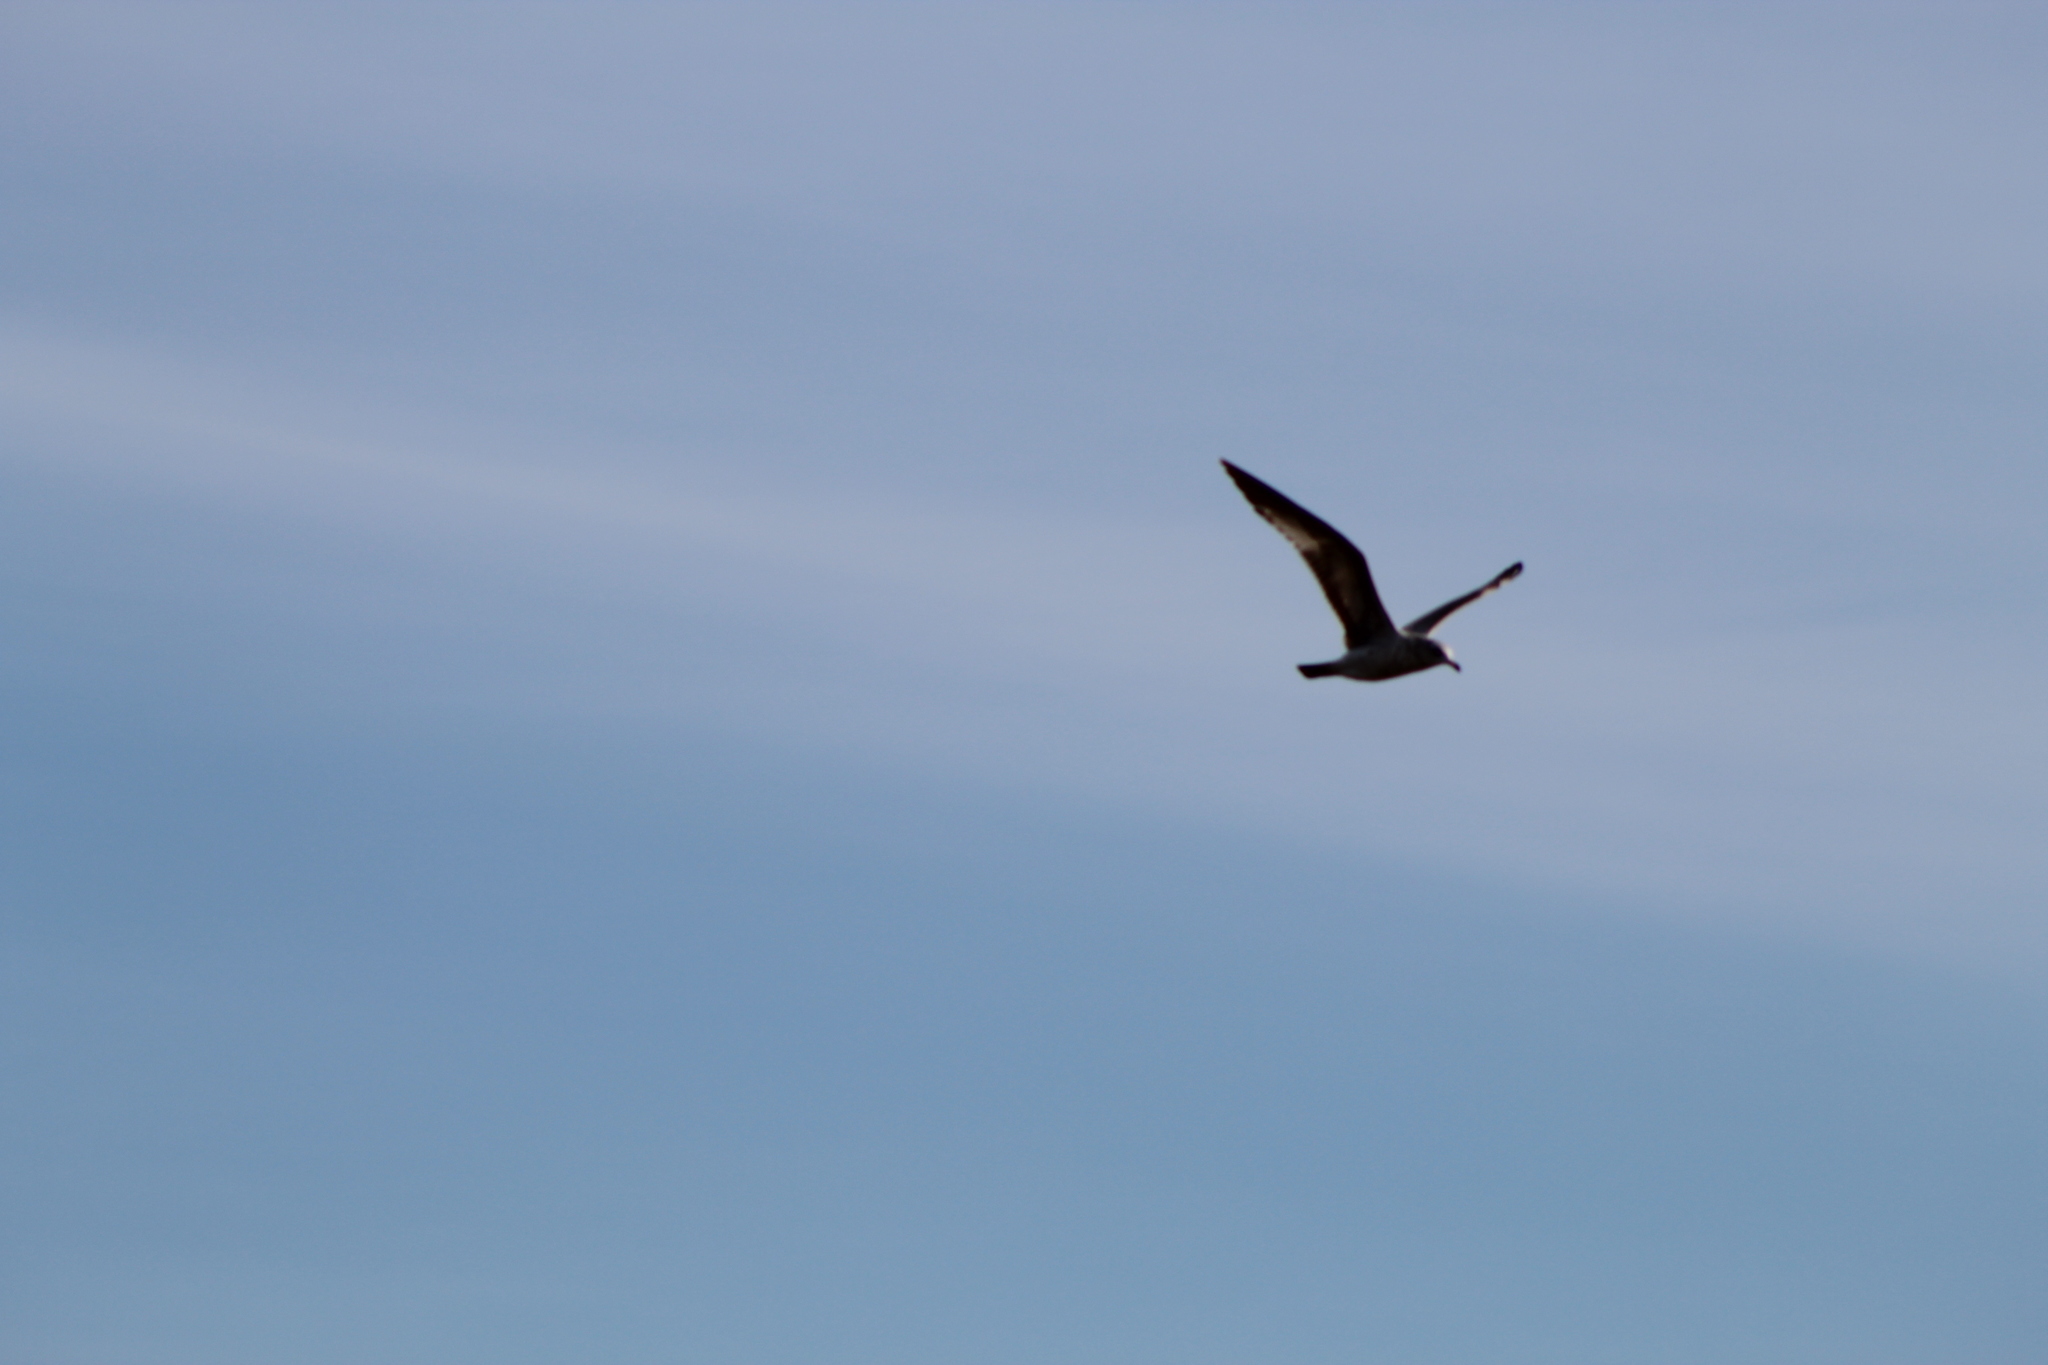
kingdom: Animalia
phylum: Chordata
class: Aves
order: Charadriiformes
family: Laridae
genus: Larus
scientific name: Larus delawarensis
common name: Ring-billed gull
